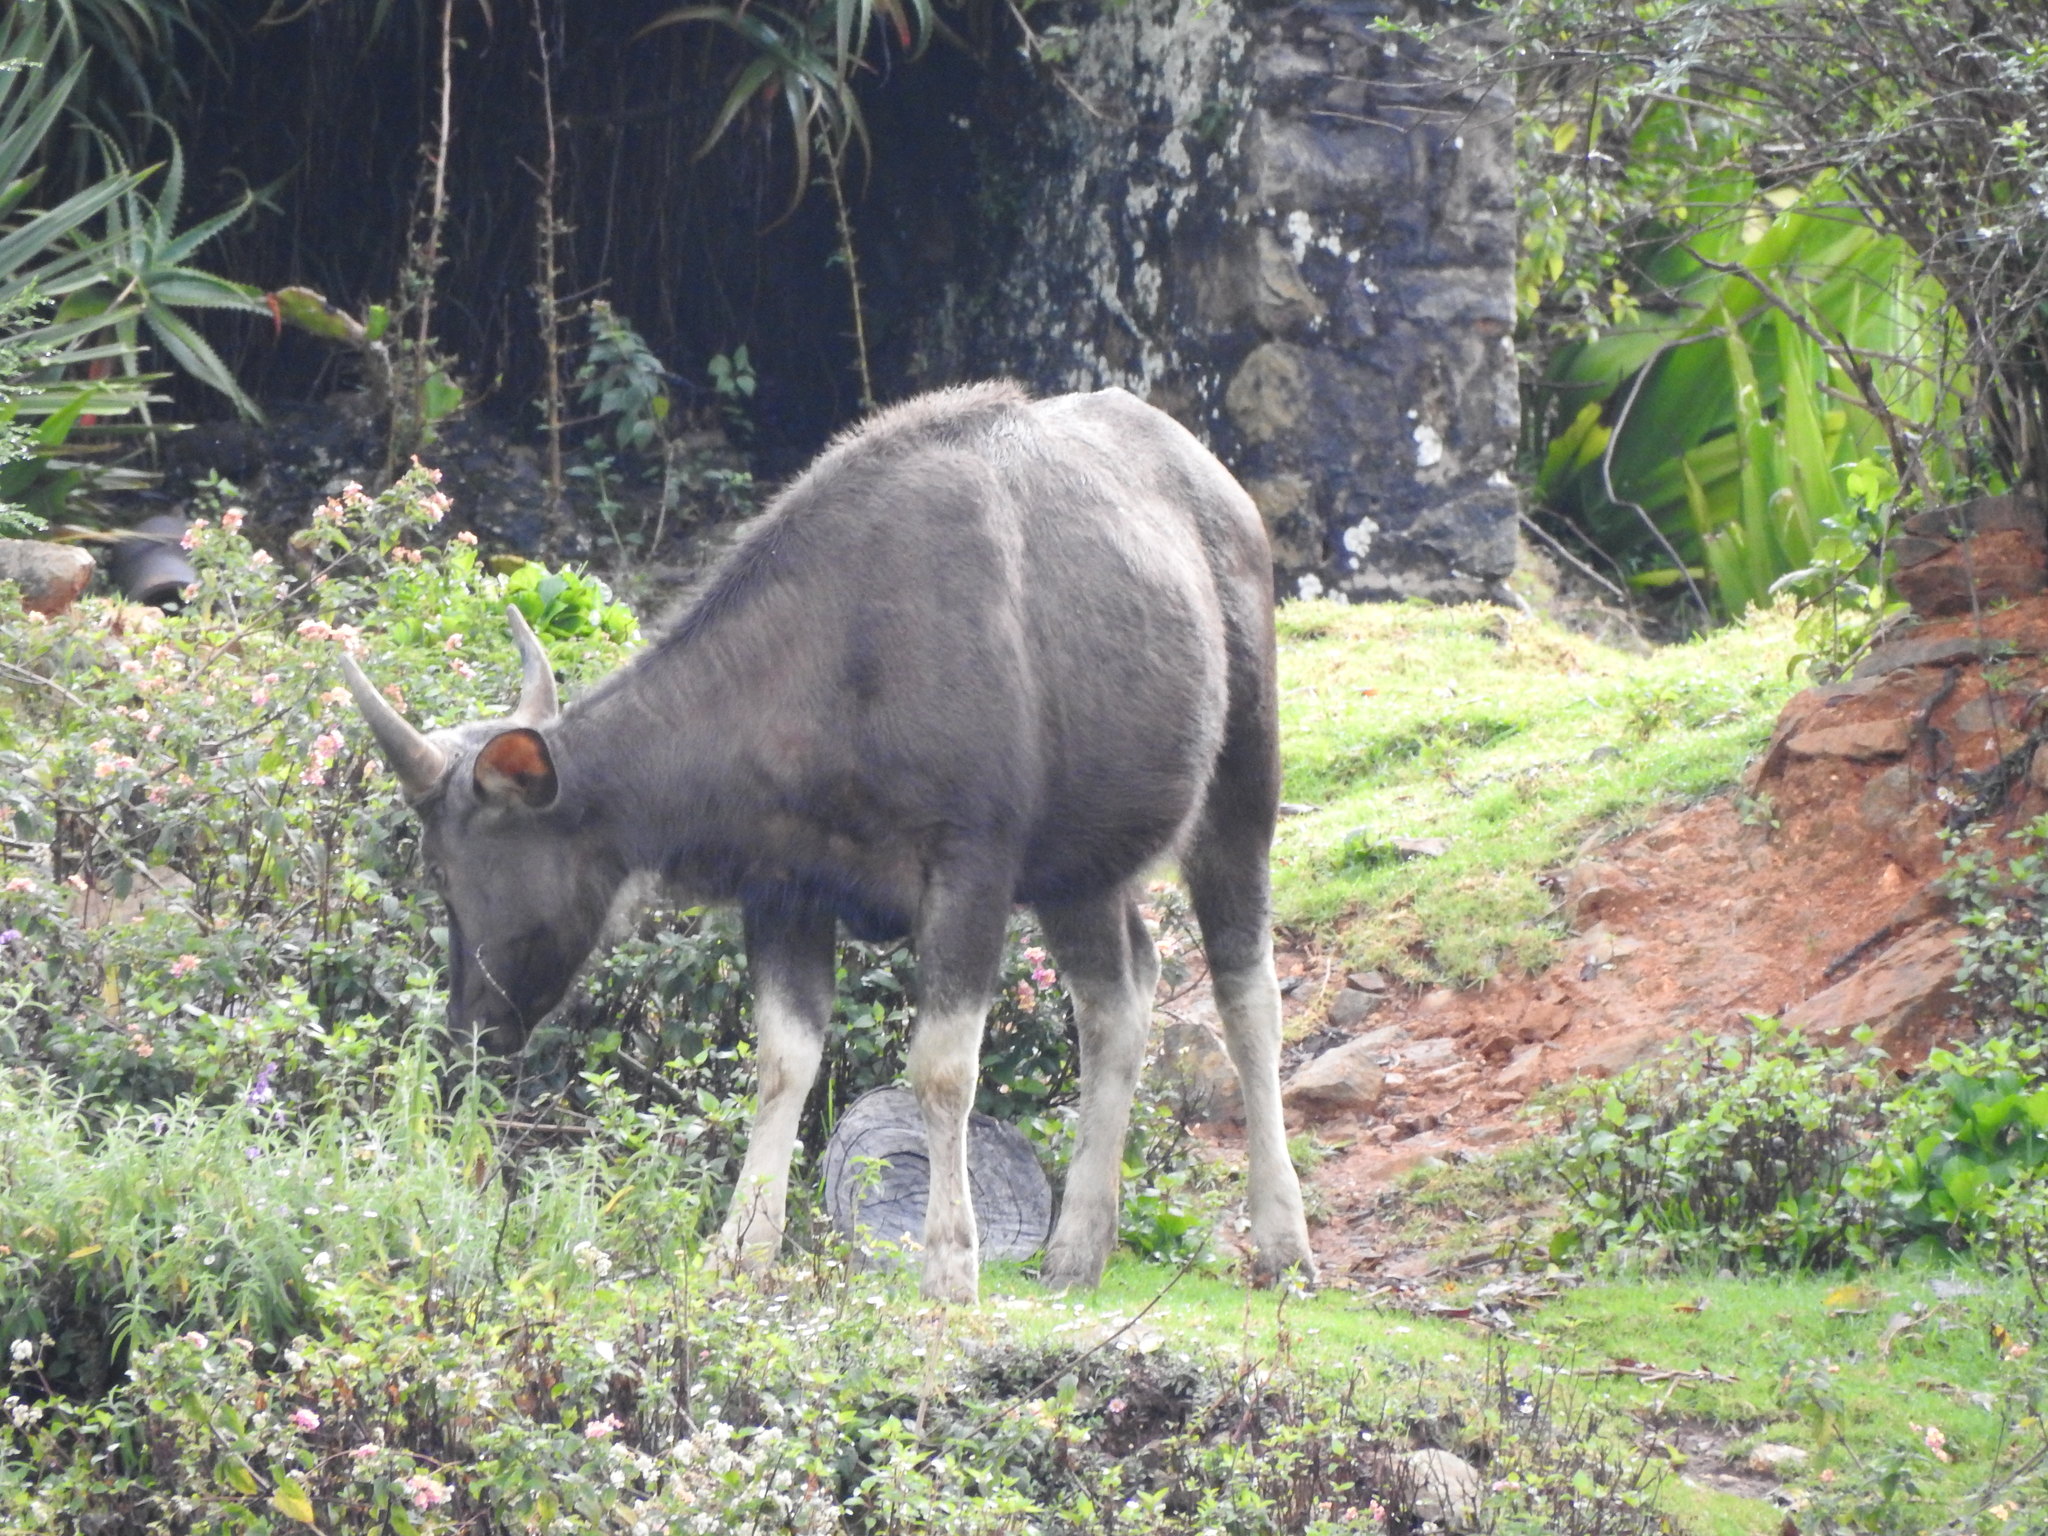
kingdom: Animalia
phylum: Chordata
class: Mammalia
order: Artiodactyla
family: Bovidae
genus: Bos
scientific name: Bos frontalis
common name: Gaur
